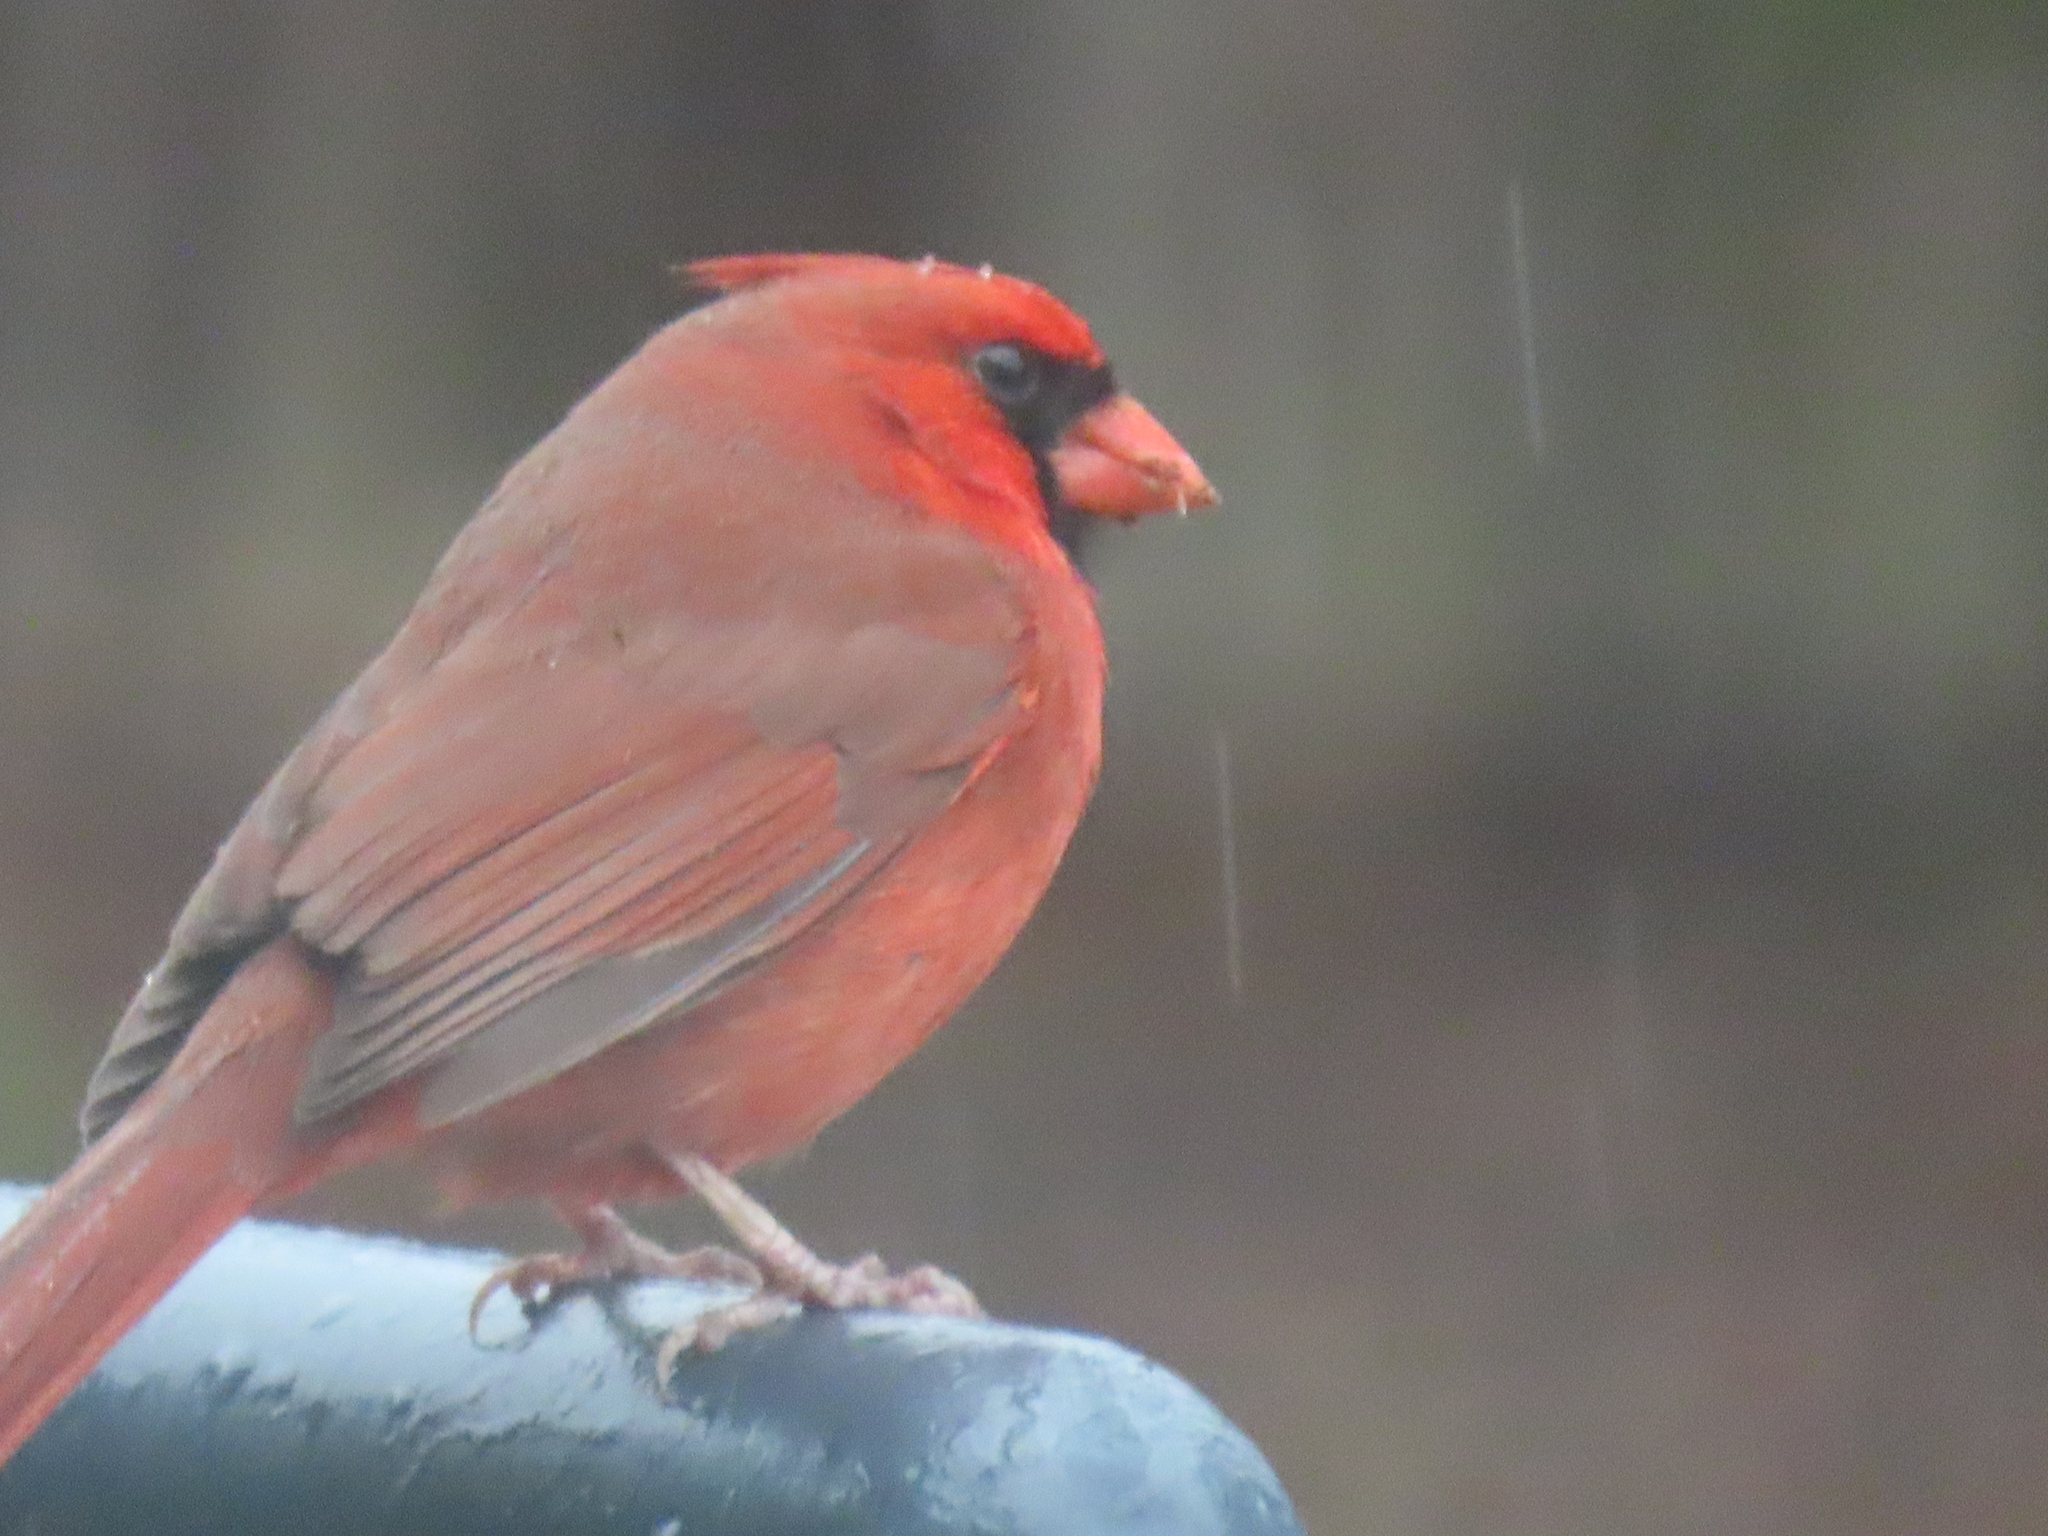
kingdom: Animalia
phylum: Chordata
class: Aves
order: Passeriformes
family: Cardinalidae
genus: Cardinalis
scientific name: Cardinalis cardinalis
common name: Northern cardinal
